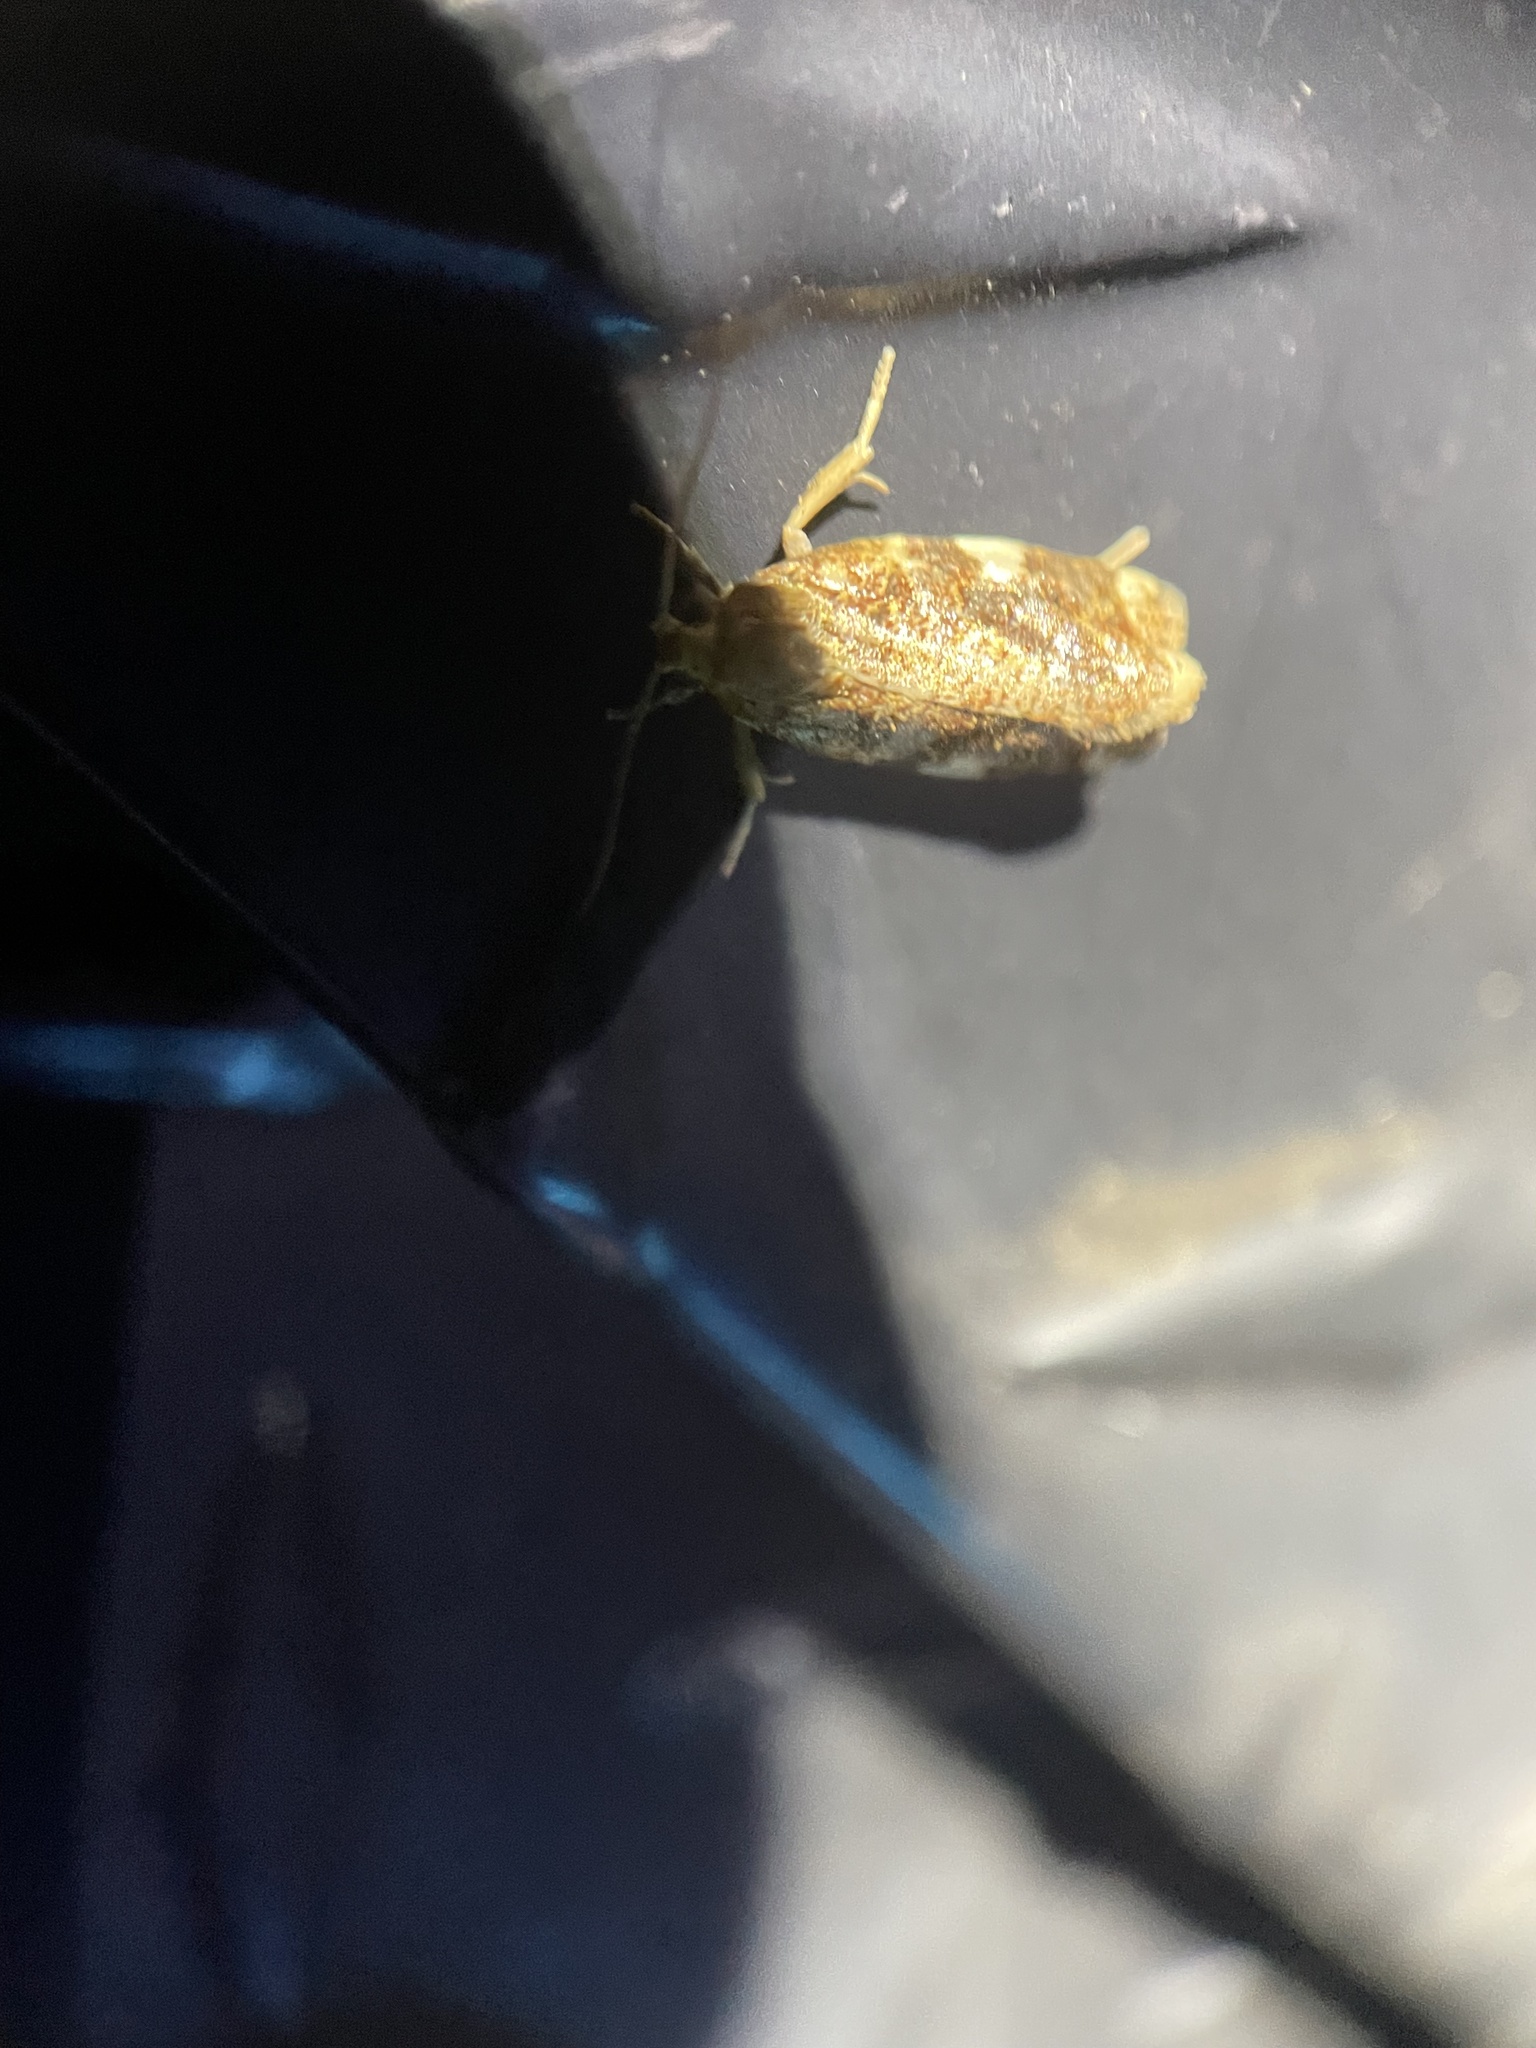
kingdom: Animalia
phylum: Arthropoda
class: Insecta
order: Lepidoptera
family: Tortricidae
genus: Archips
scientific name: Archips argyrospila
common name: Fruit-tree leafroller moth
